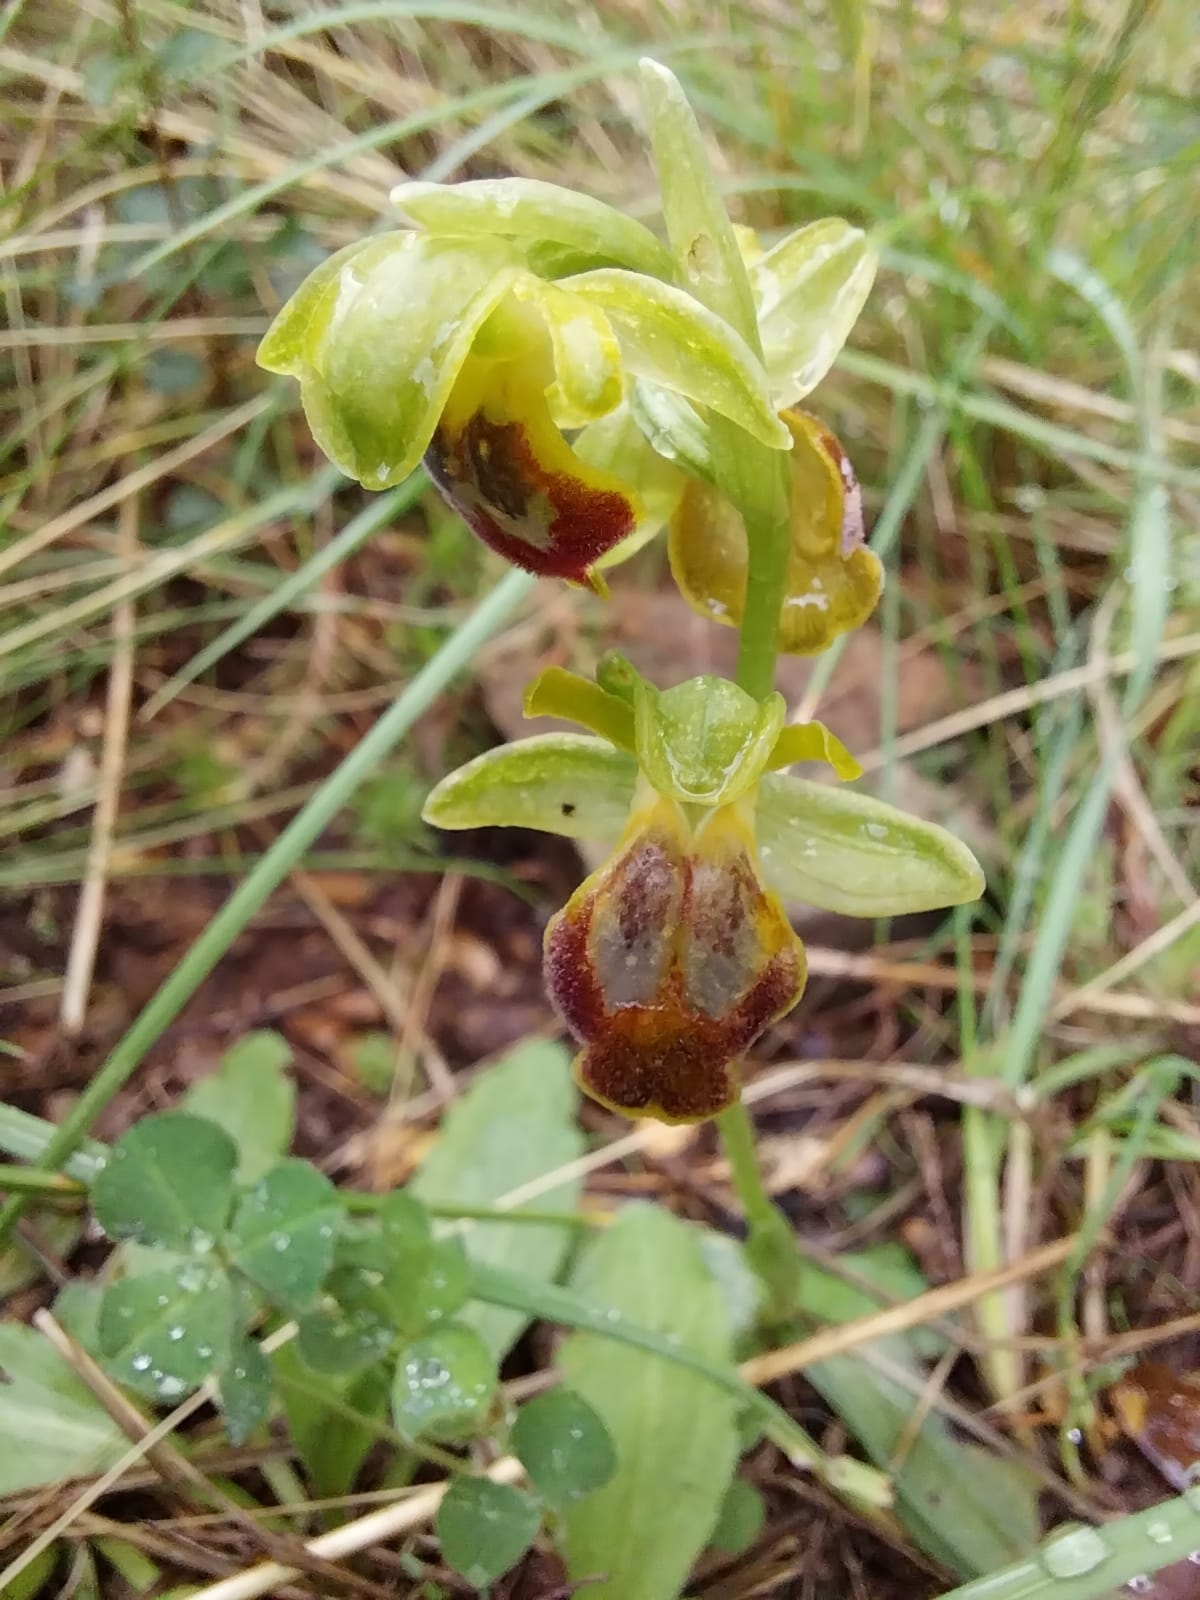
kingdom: Plantae
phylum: Tracheophyta
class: Liliopsida
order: Asparagales
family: Orchidaceae
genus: Ophrys
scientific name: Ophrys fusca
